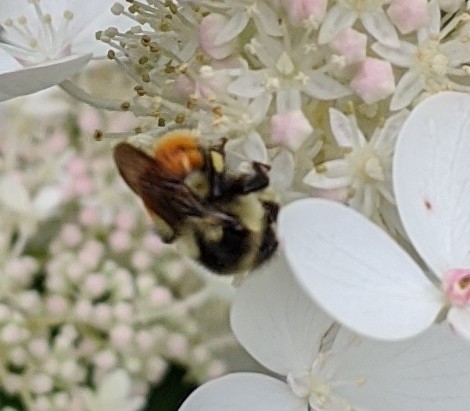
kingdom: Animalia
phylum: Arthropoda
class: Insecta
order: Hymenoptera
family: Apidae
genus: Bombus
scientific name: Bombus ternarius
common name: Tri-colored bumble bee
